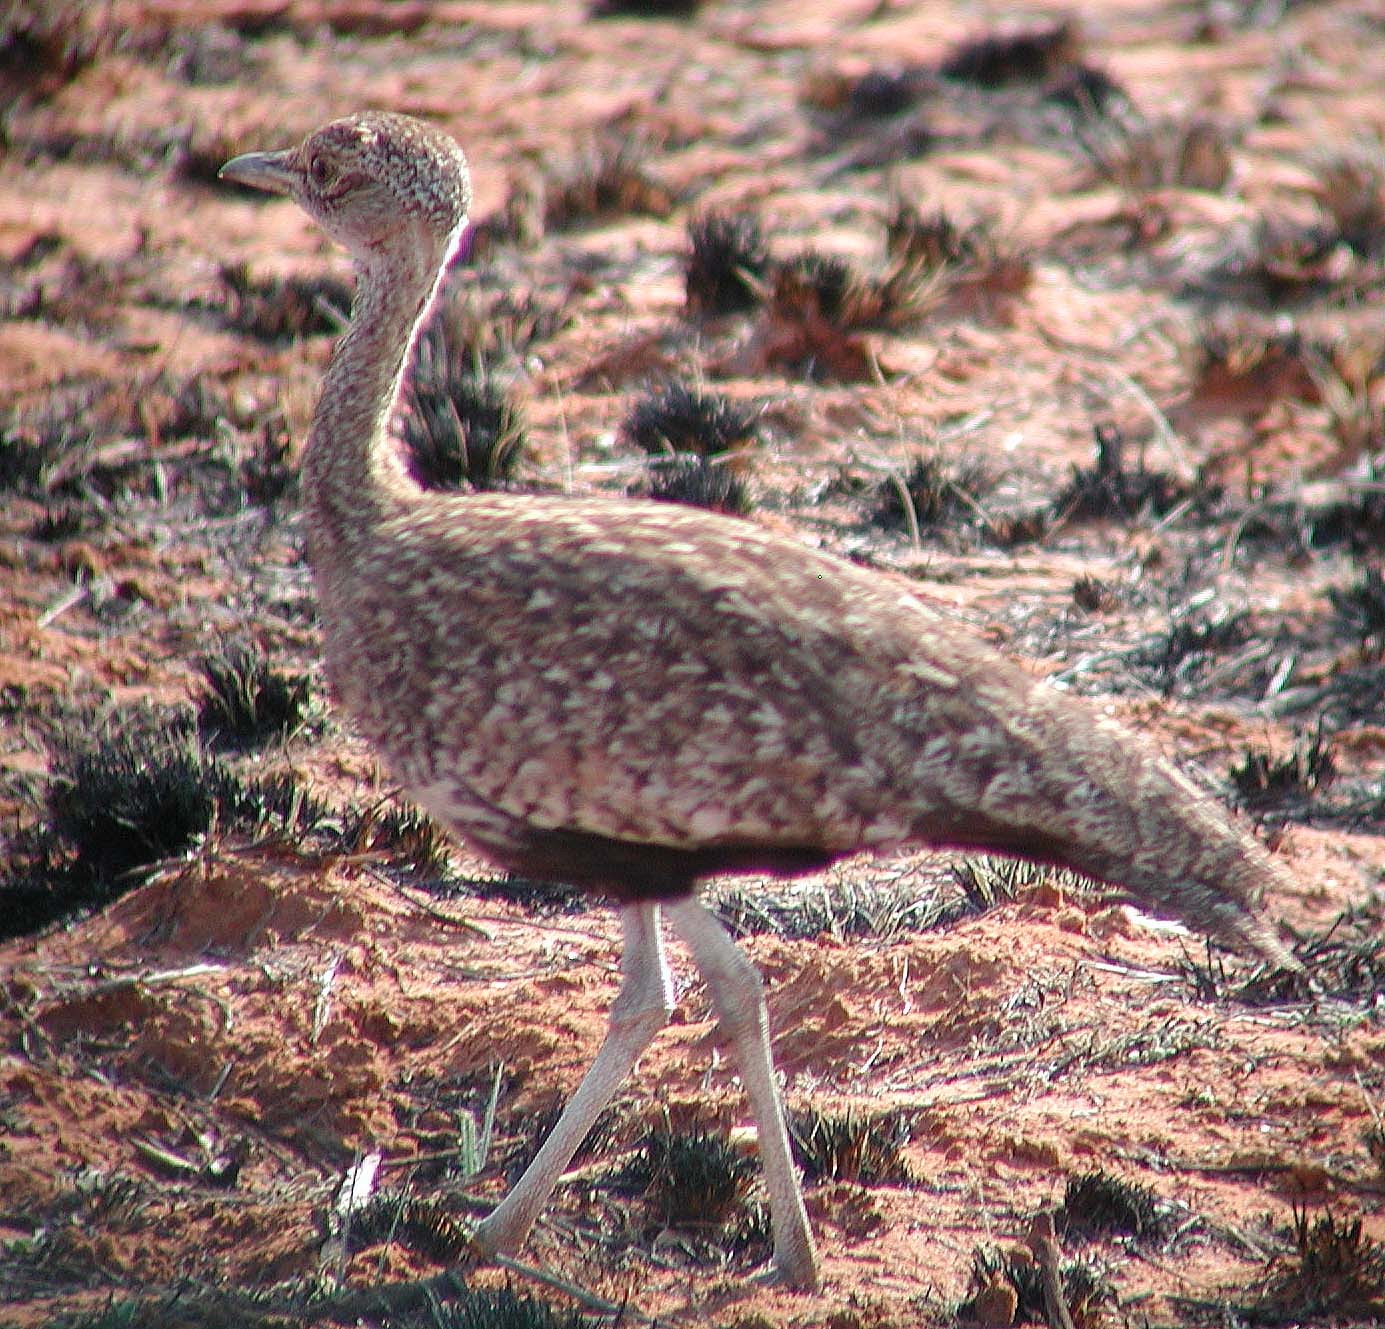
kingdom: Animalia
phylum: Chordata
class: Aves
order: Otidiformes
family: Otididae
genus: Lophotis
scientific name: Lophotis ruficrista
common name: Red-crested korhaan
